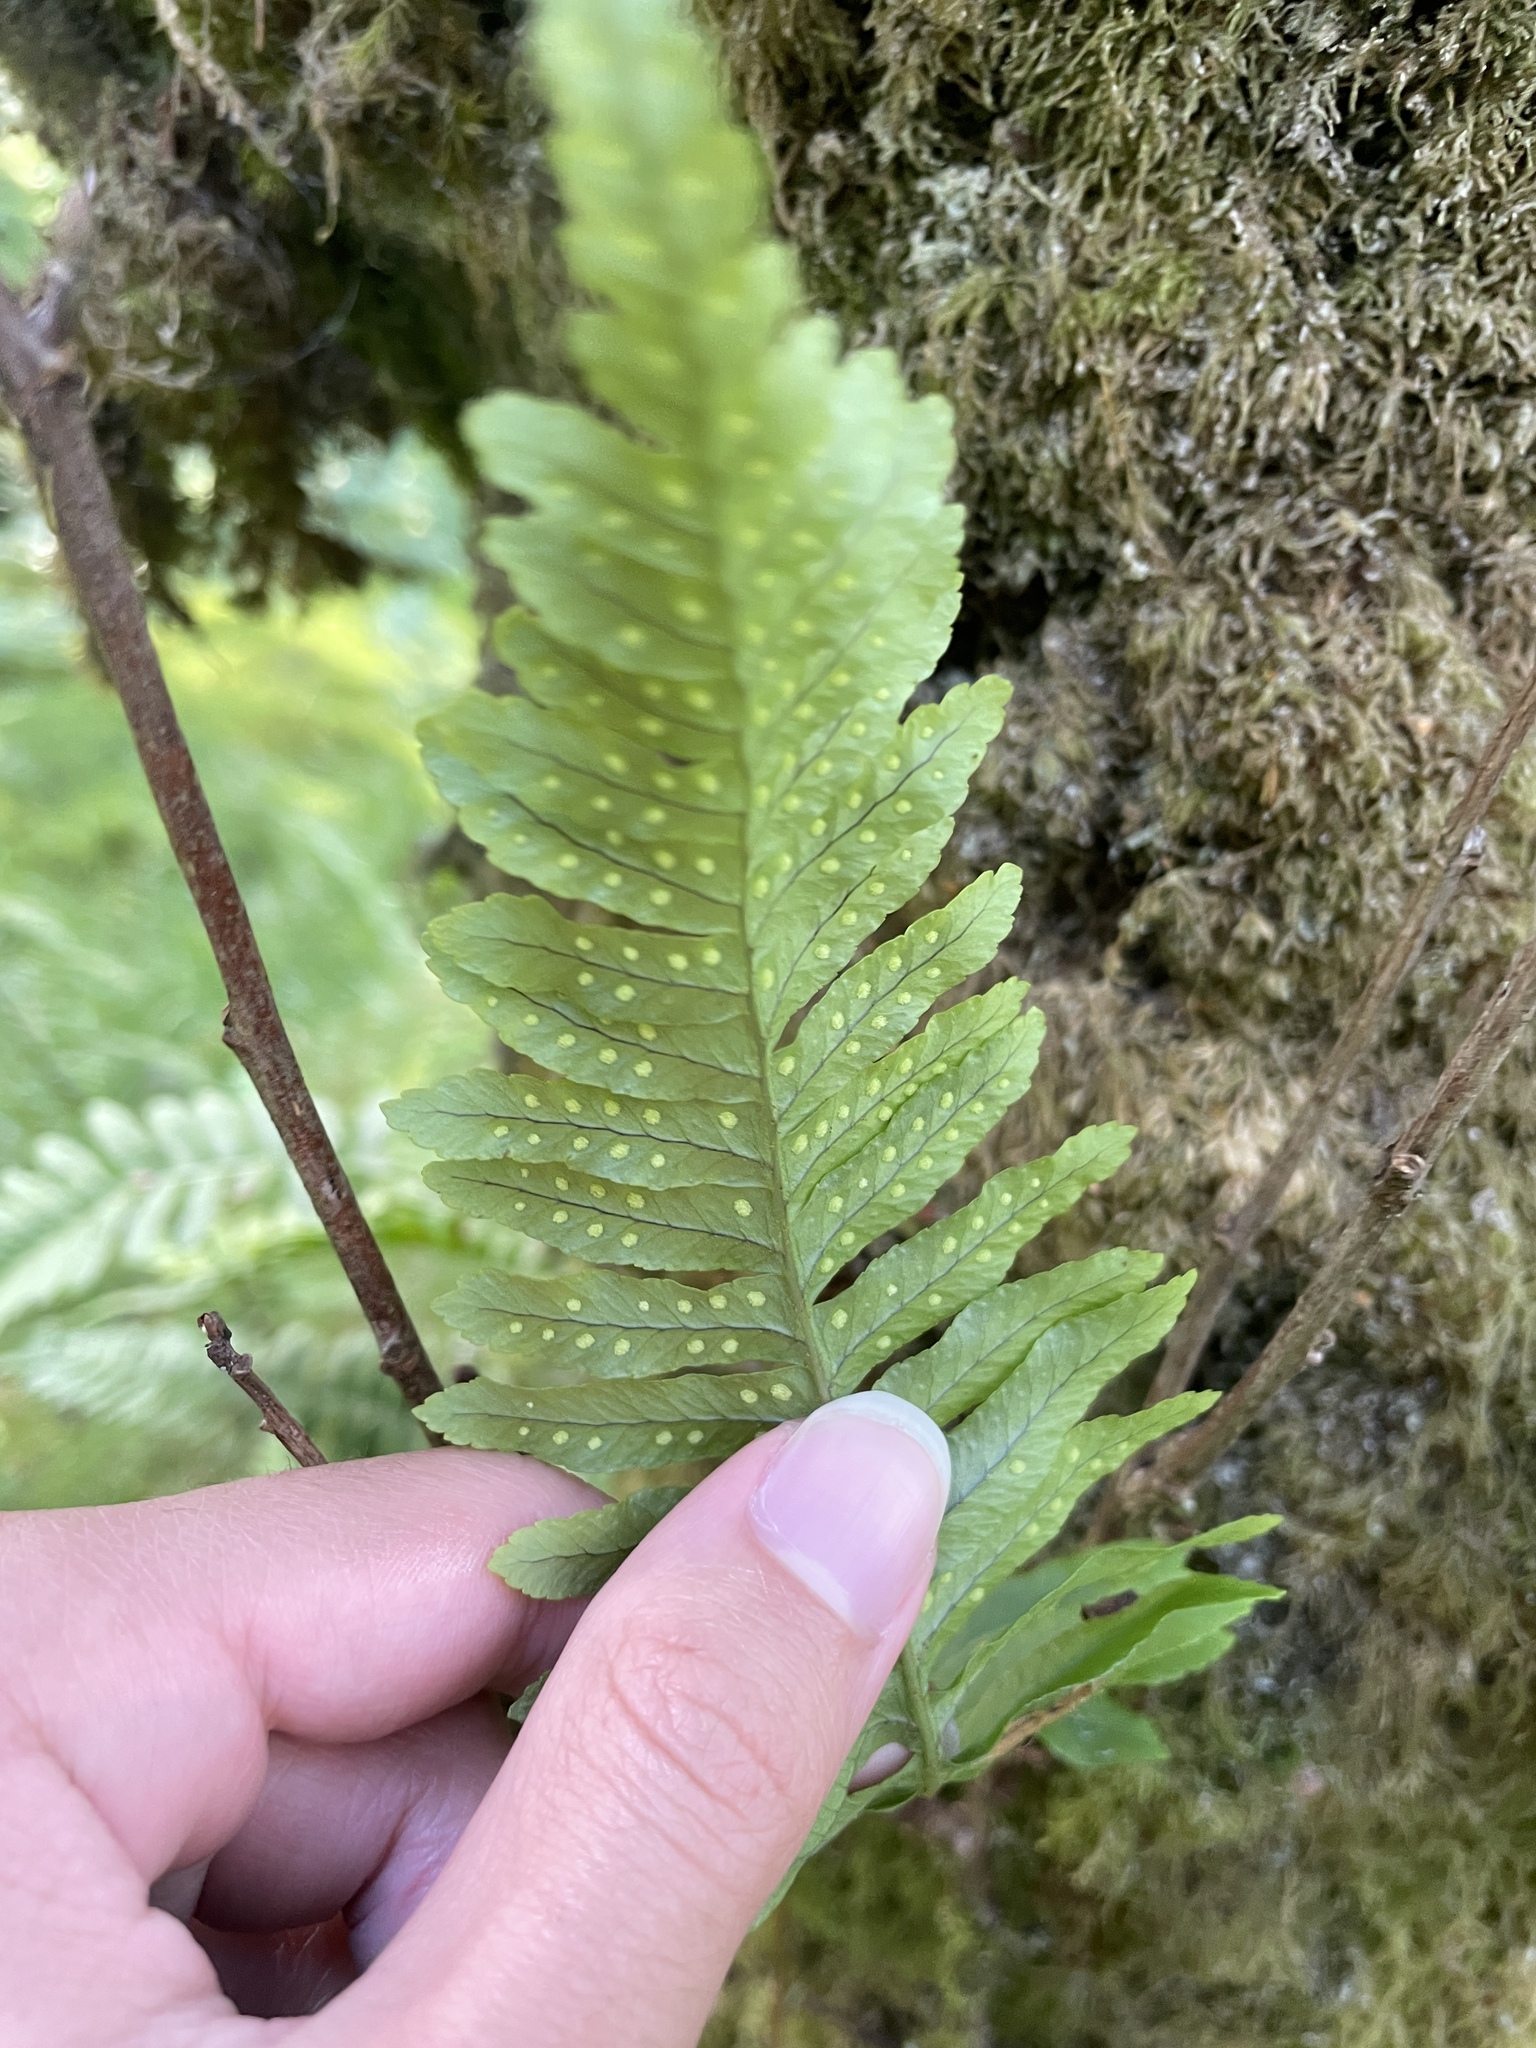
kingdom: Plantae
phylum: Tracheophyta
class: Polypodiopsida
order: Polypodiales
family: Polypodiaceae
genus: Polypodium
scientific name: Polypodium vulgare
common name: Common polypody
